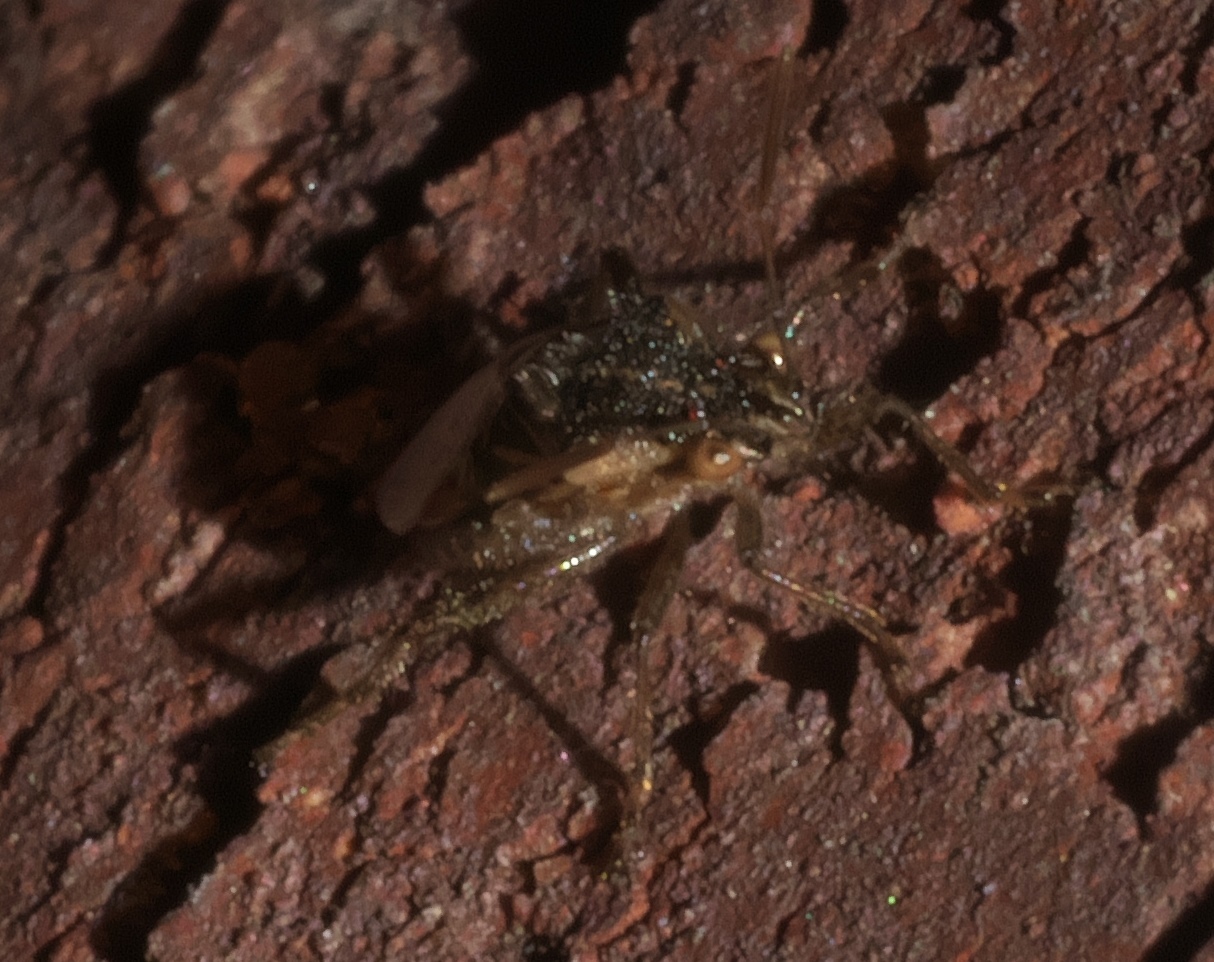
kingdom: Animalia
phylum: Arthropoda
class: Insecta
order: Hemiptera
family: Rhopalidae
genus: Liorhyssus
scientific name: Liorhyssus hyalinus
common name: Scentless plant bug
